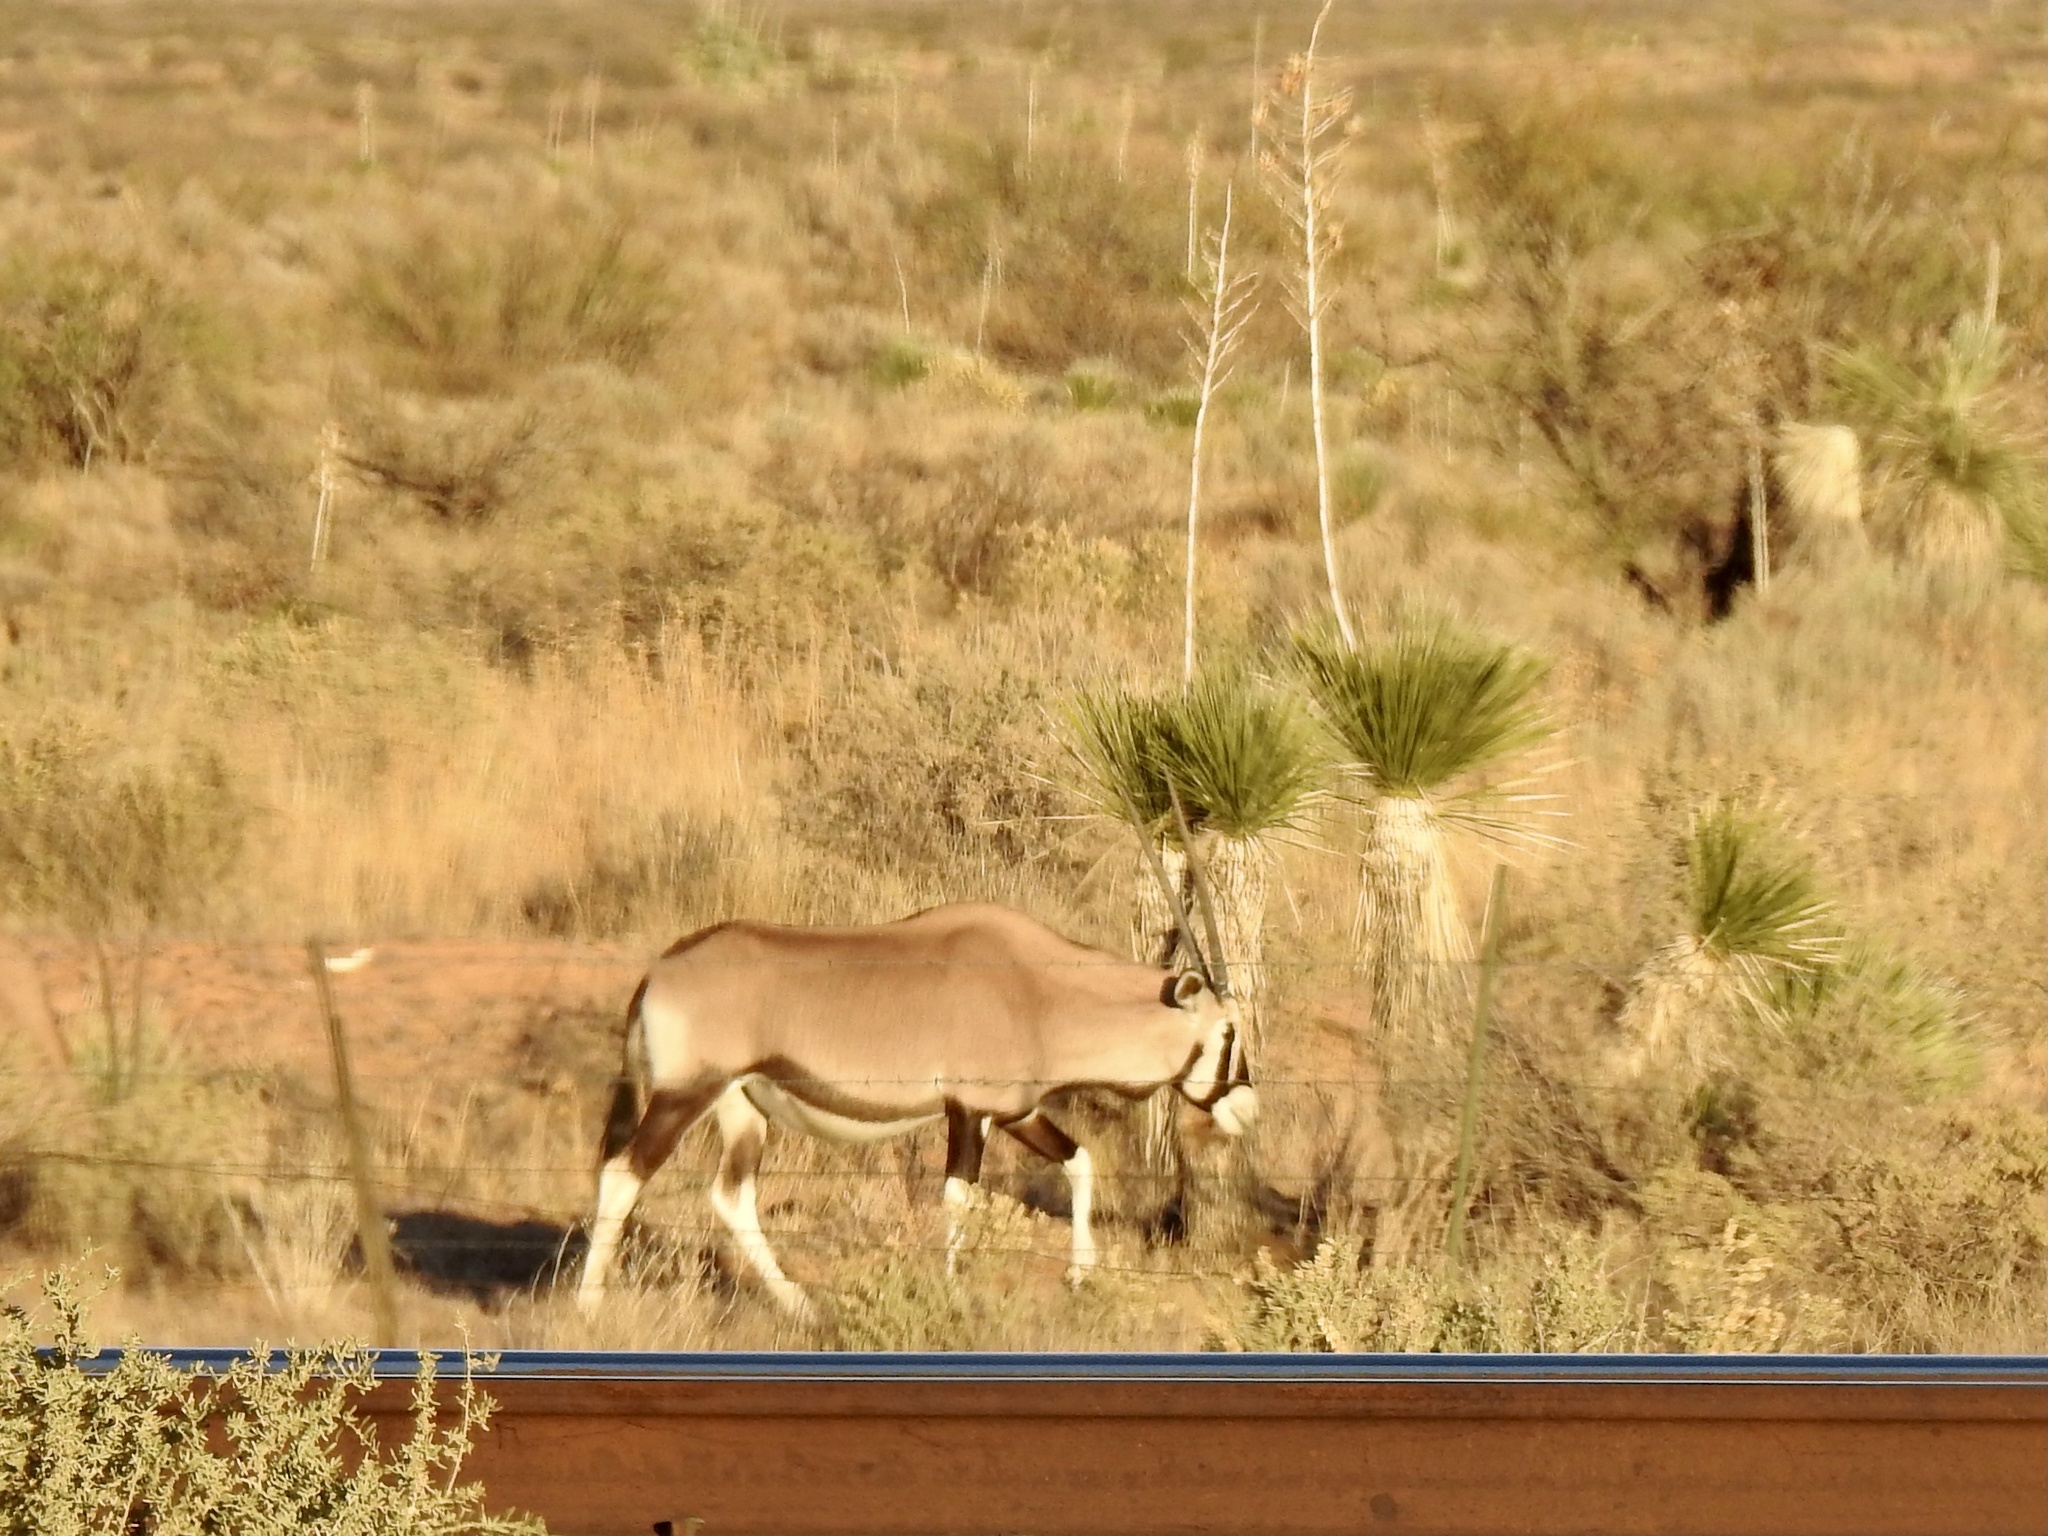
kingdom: Animalia
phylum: Chordata
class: Mammalia
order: Artiodactyla
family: Bovidae
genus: Oryx
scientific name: Oryx gazella
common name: Gemsbok
